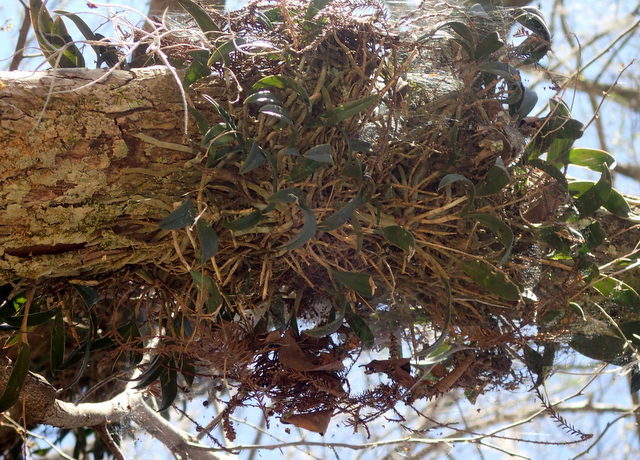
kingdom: Plantae
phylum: Tracheophyta
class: Liliopsida
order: Asparagales
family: Orchidaceae
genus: Epidendrum
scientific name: Epidendrum conopseum
